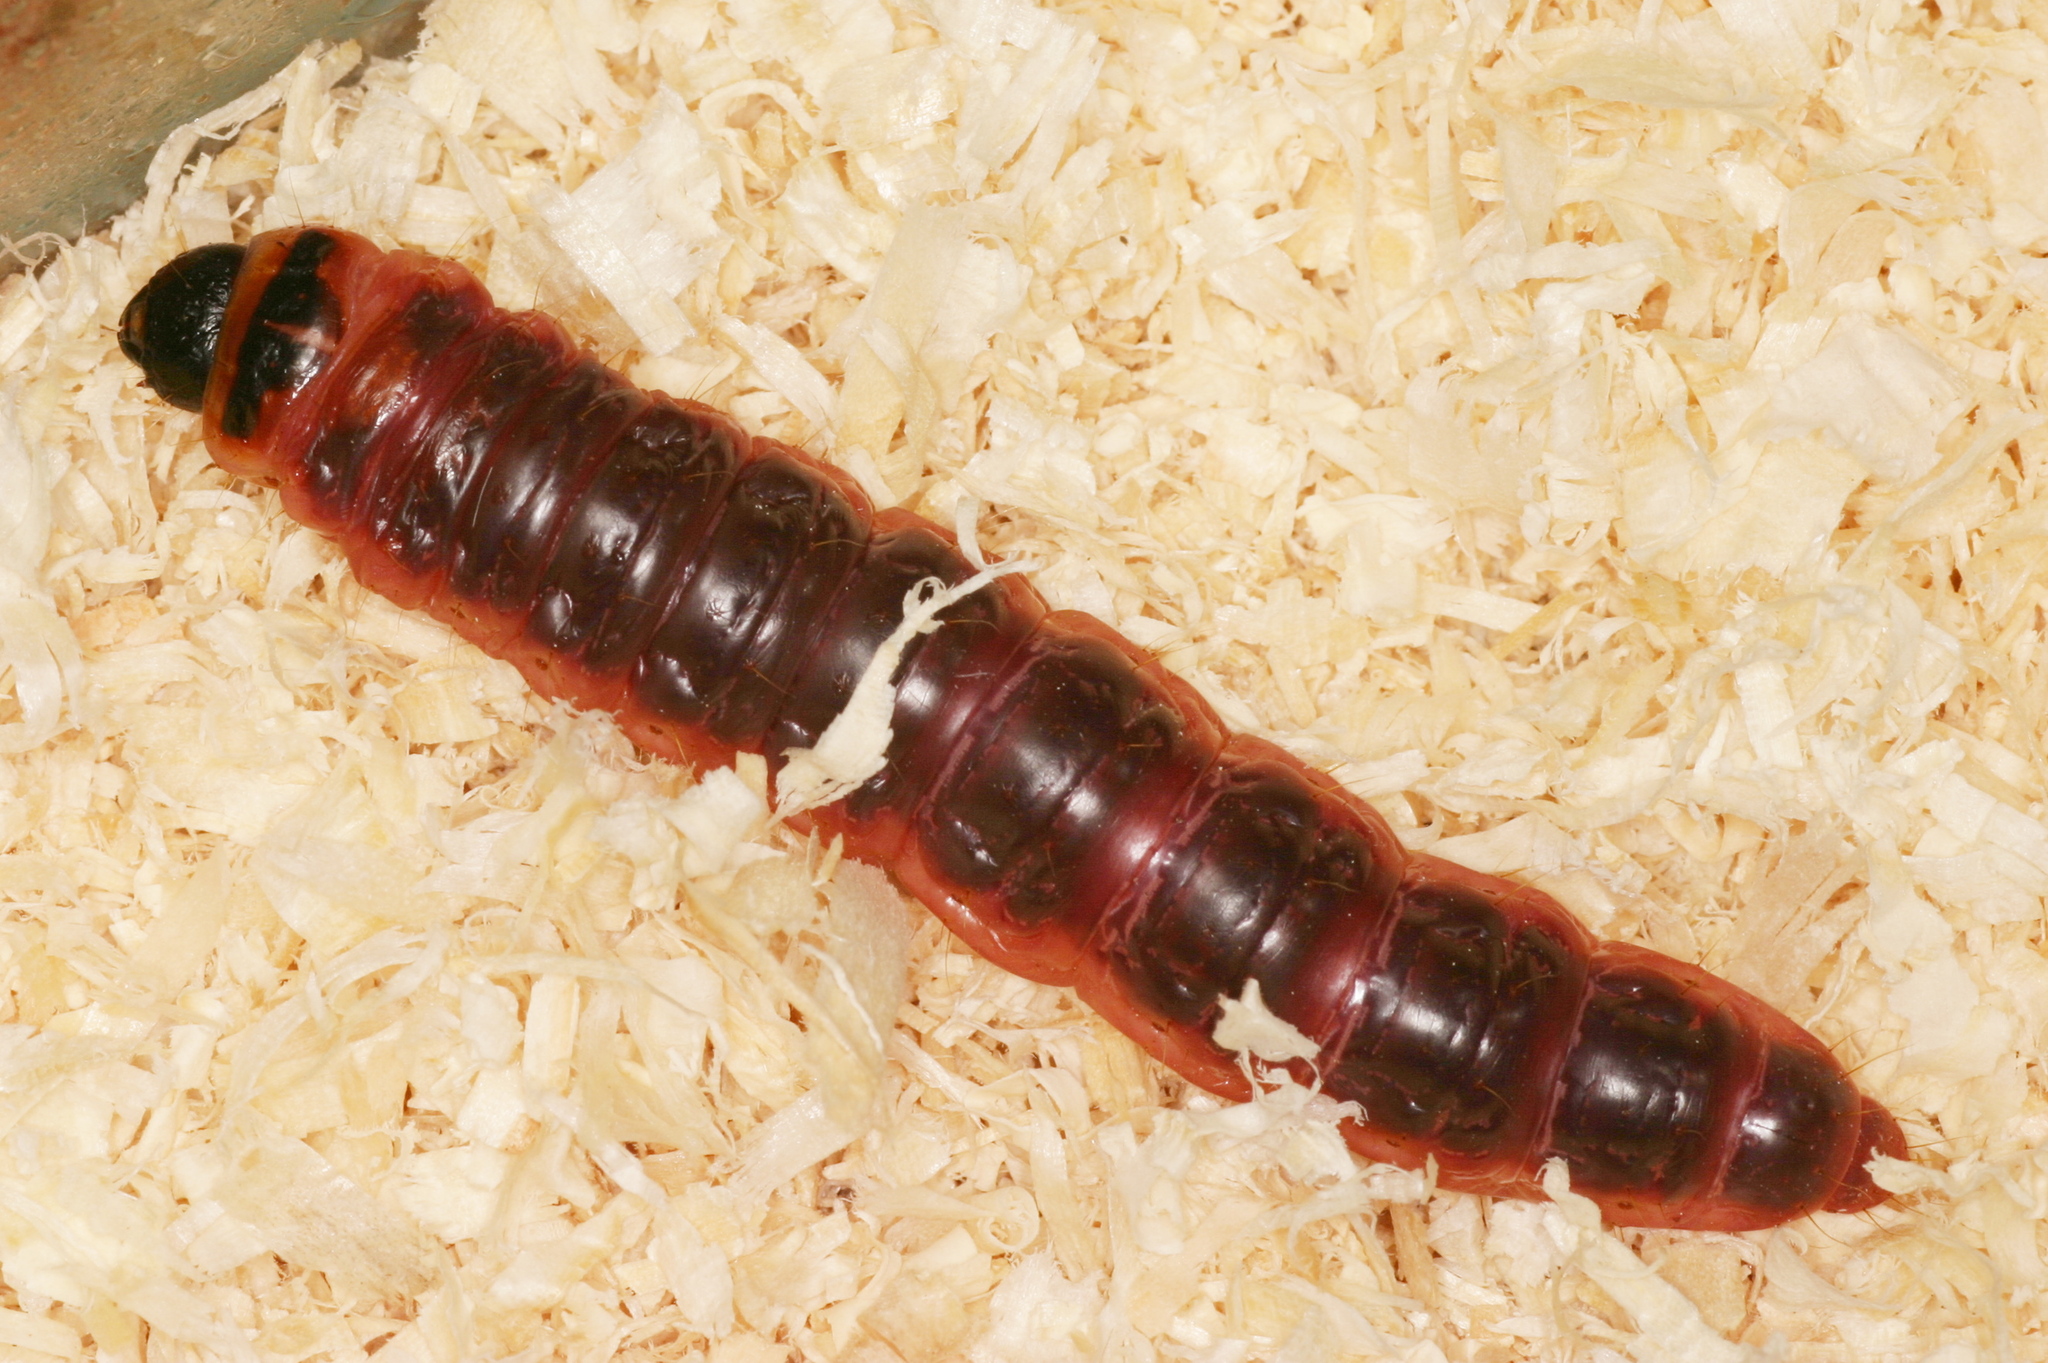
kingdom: Animalia
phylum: Arthropoda
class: Insecta
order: Lepidoptera
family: Cossidae
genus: Cossus
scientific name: Cossus cossus
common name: Goat moth
